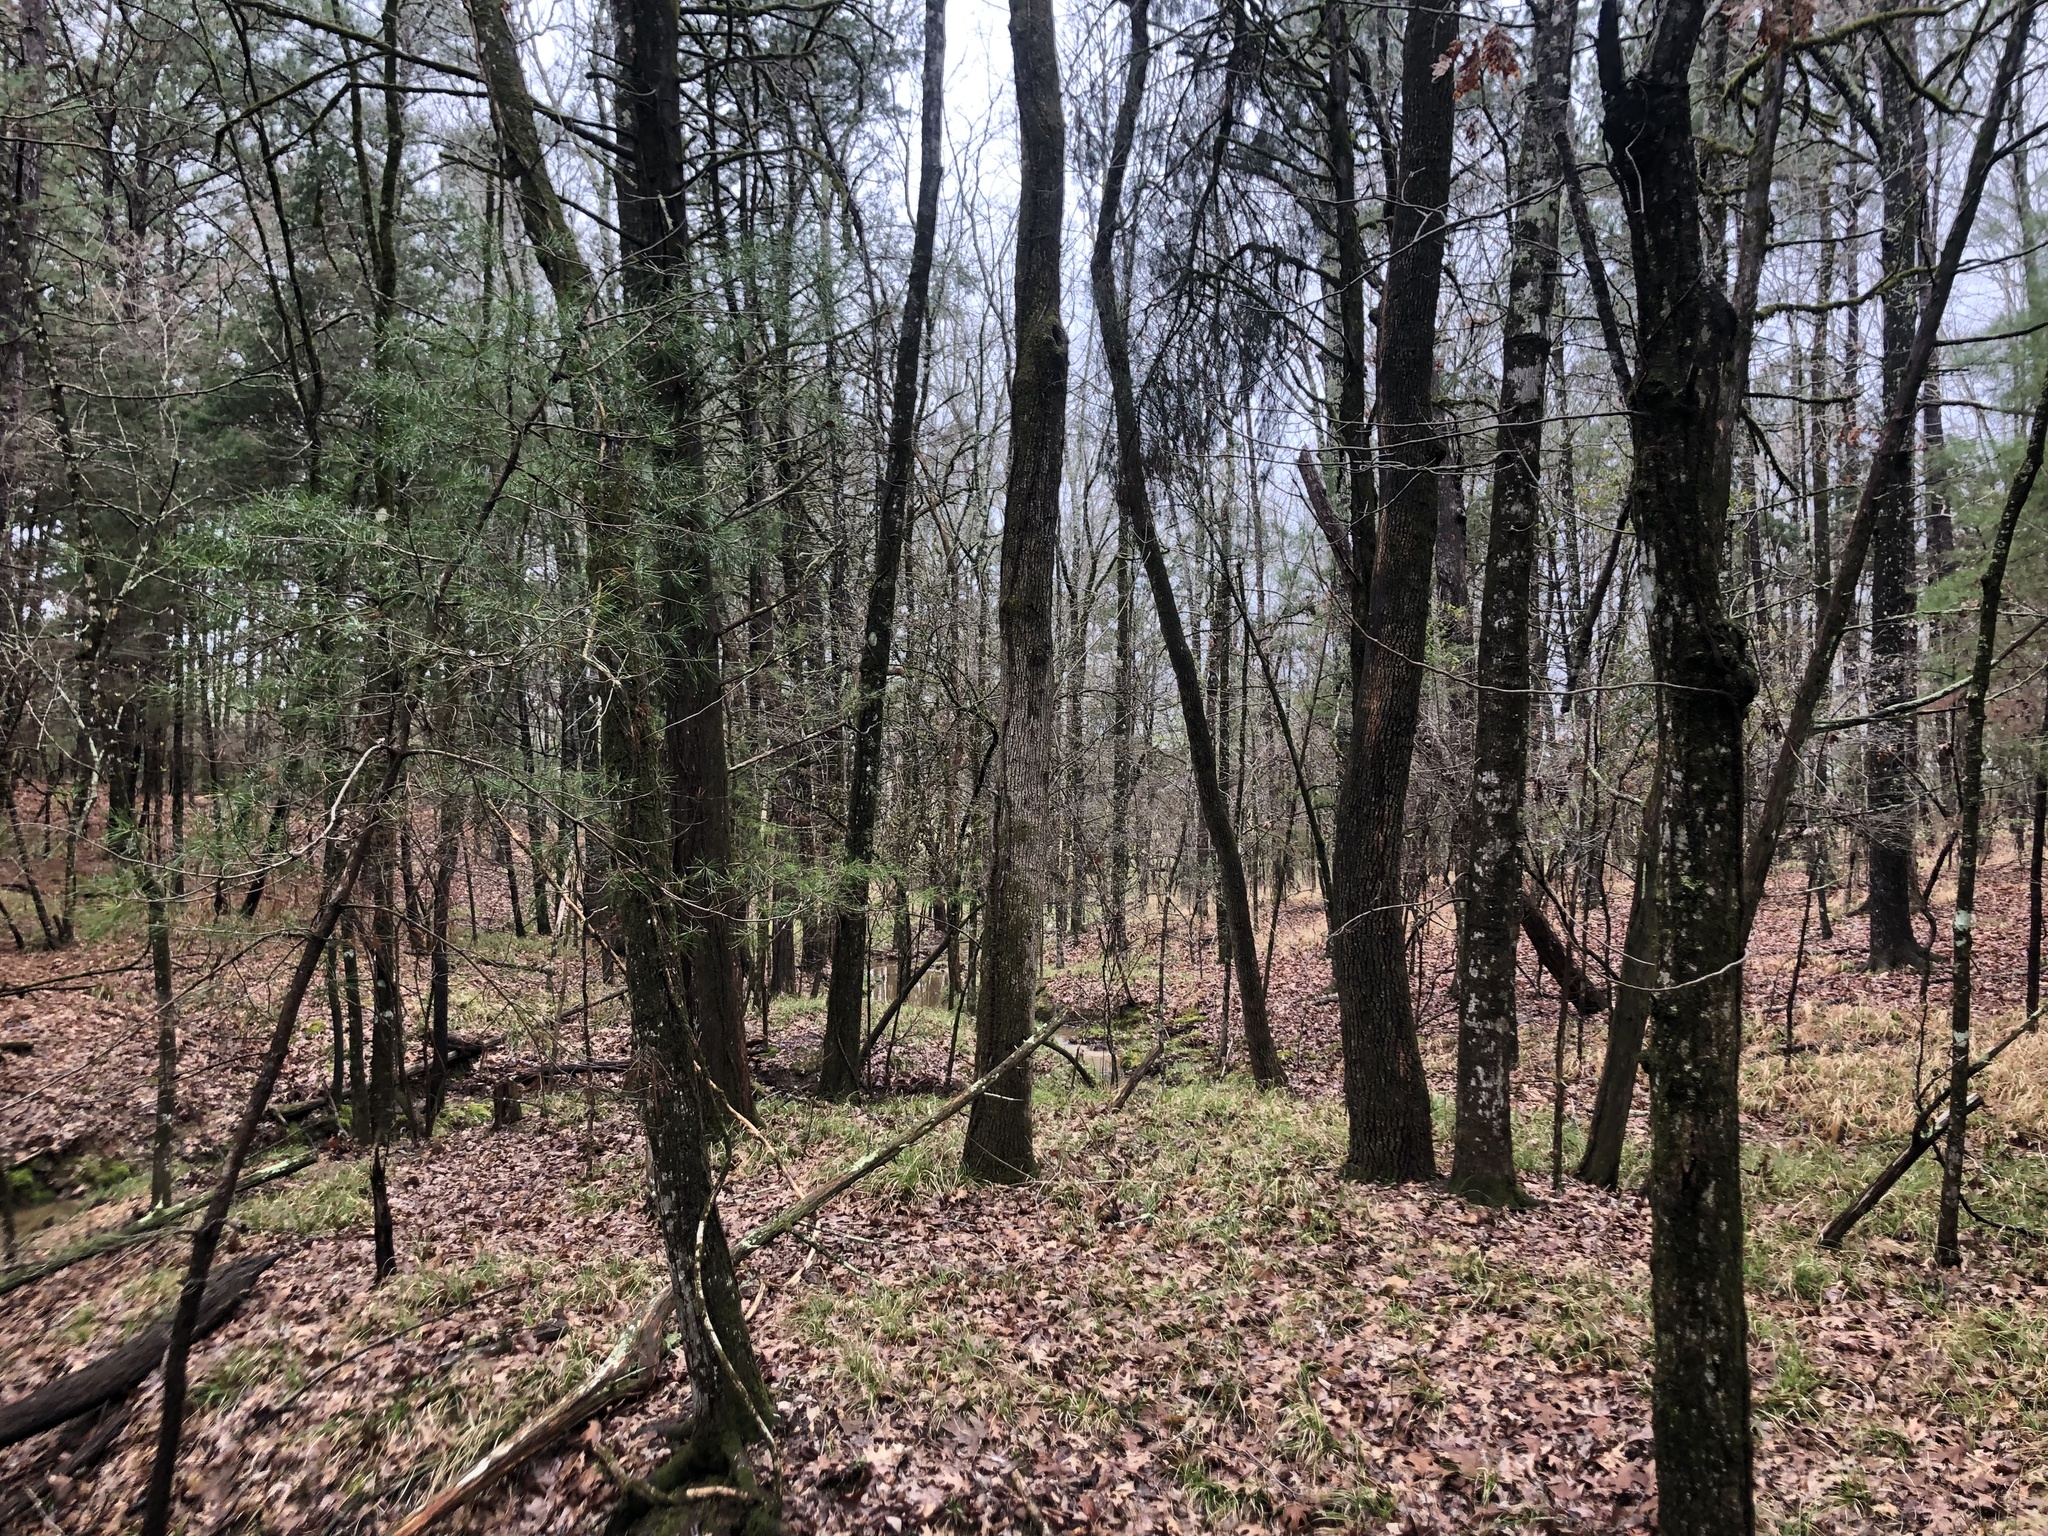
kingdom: Plantae
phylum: Tracheophyta
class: Liliopsida
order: Asparagales
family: Asparagaceae
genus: Camassia
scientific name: Camassia scilloides
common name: Wild hyacinth
